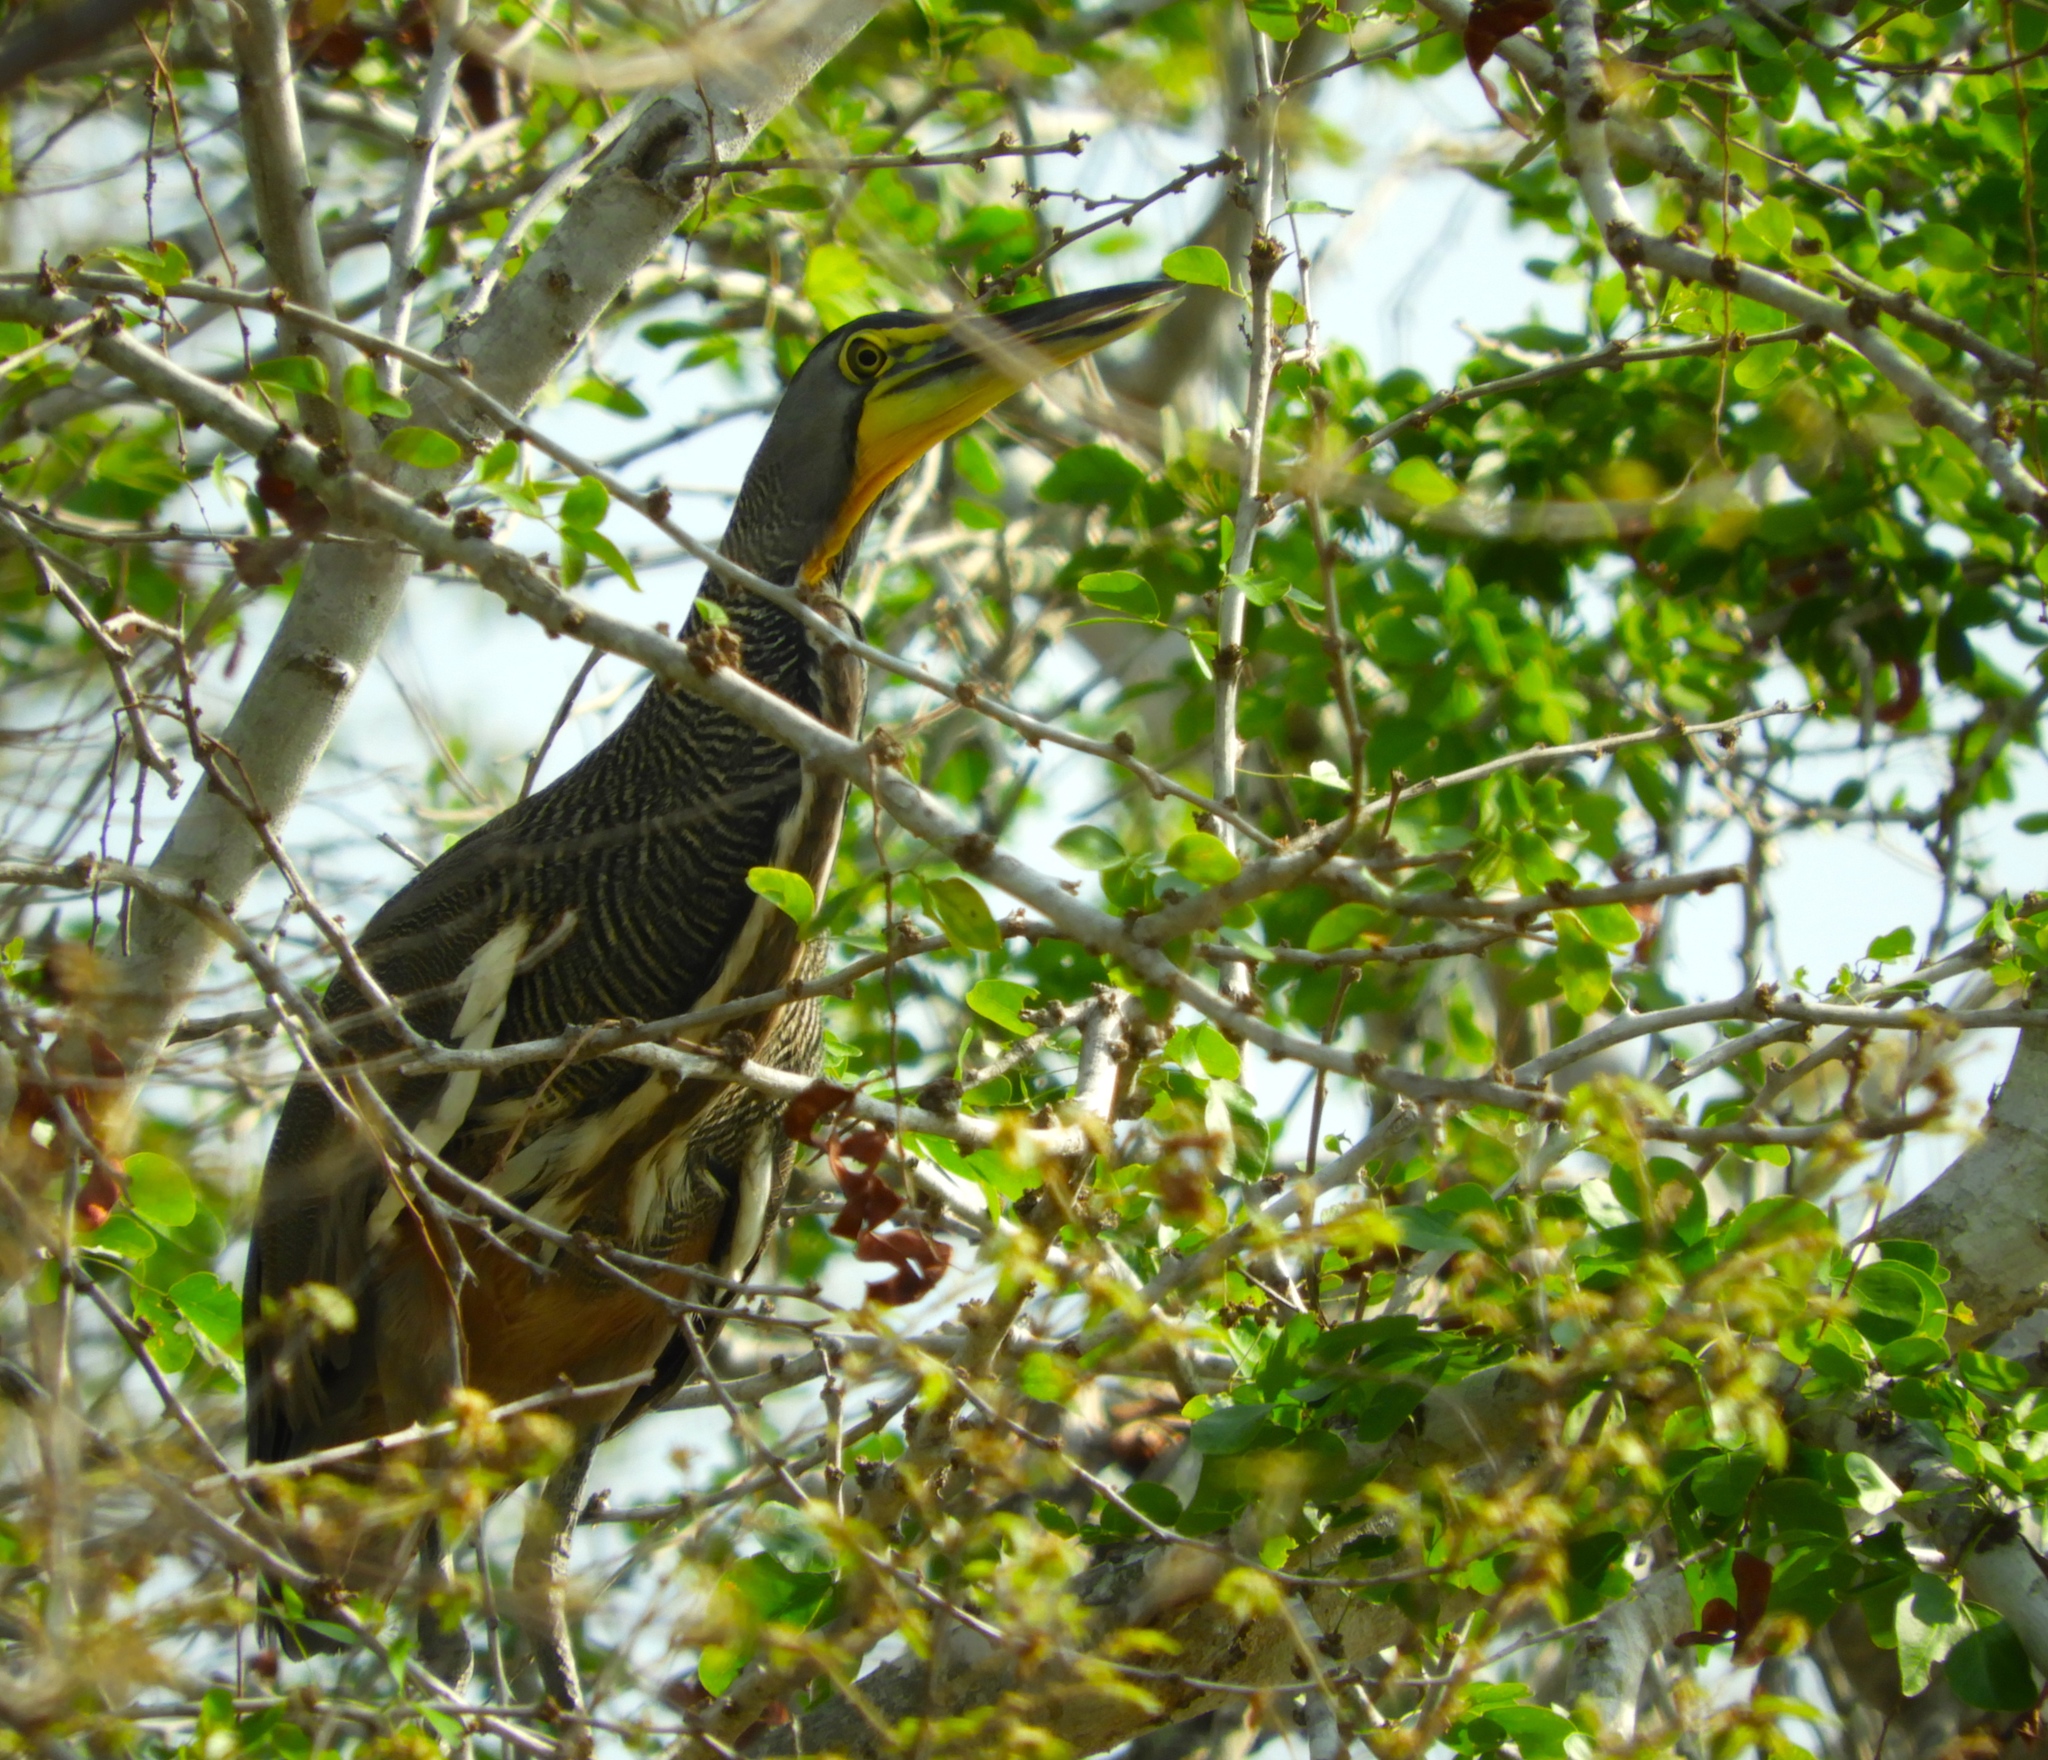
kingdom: Animalia
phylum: Chordata
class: Aves
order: Pelecaniformes
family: Ardeidae
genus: Tigrisoma
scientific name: Tigrisoma mexicanum
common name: Bare-throated tiger-heron
